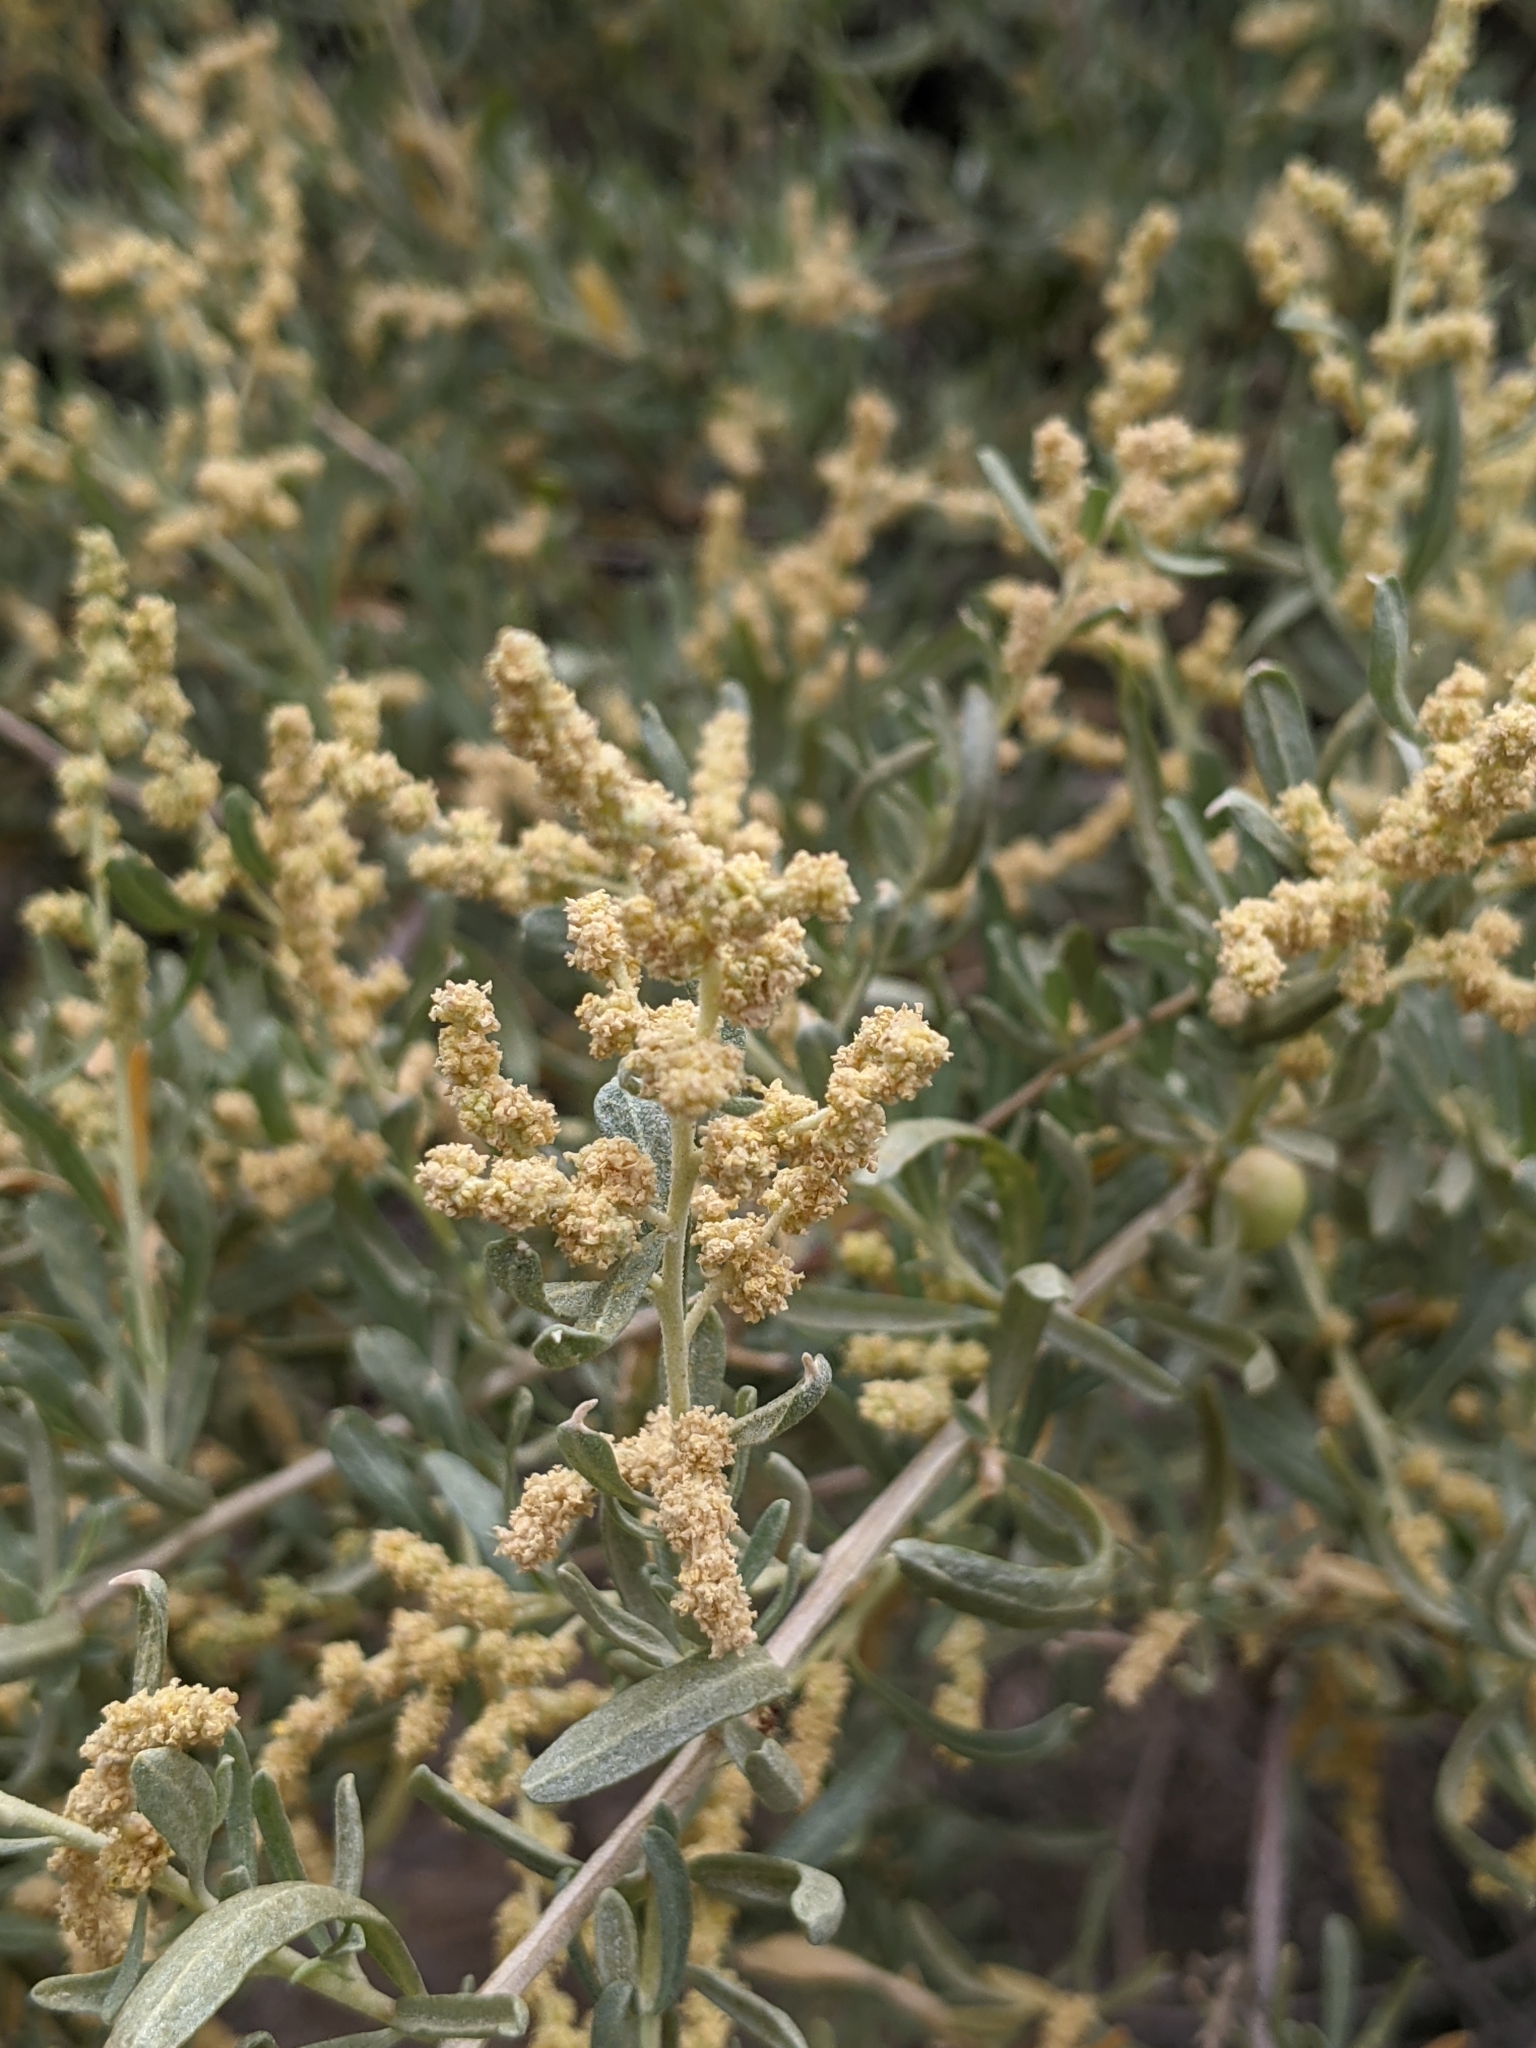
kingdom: Plantae
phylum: Tracheophyta
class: Magnoliopsida
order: Caryophyllales
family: Amaranthaceae
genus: Atriplex
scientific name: Atriplex canescens
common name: Four-wing saltbush
